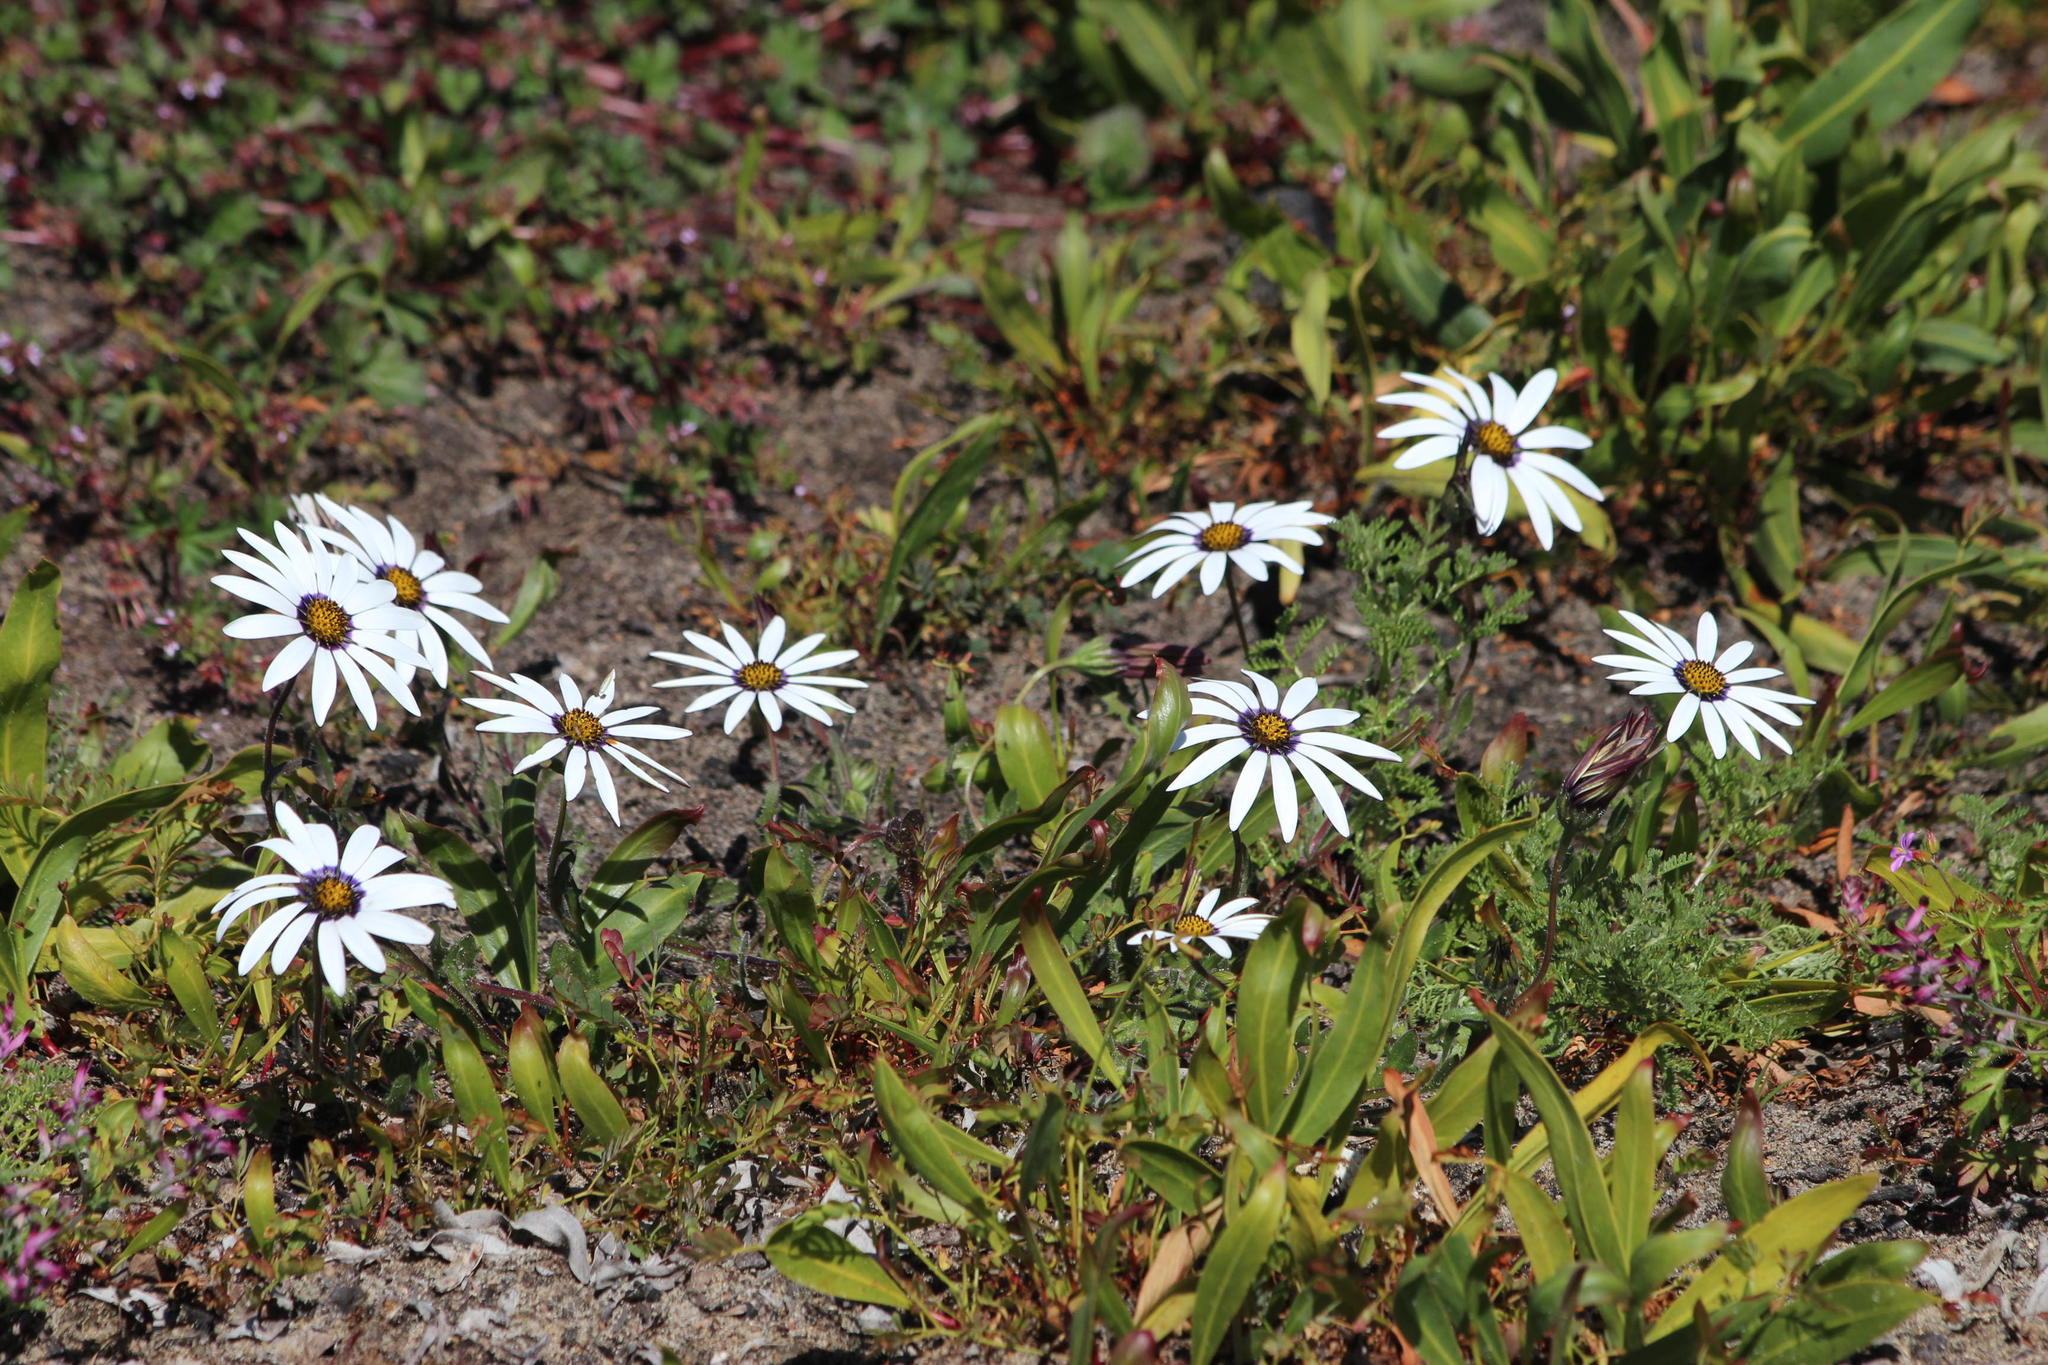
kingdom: Plantae
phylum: Tracheophyta
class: Magnoliopsida
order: Asterales
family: Asteraceae
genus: Dimorphotheca
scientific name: Dimorphotheca pluvialis
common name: Weather prophet
